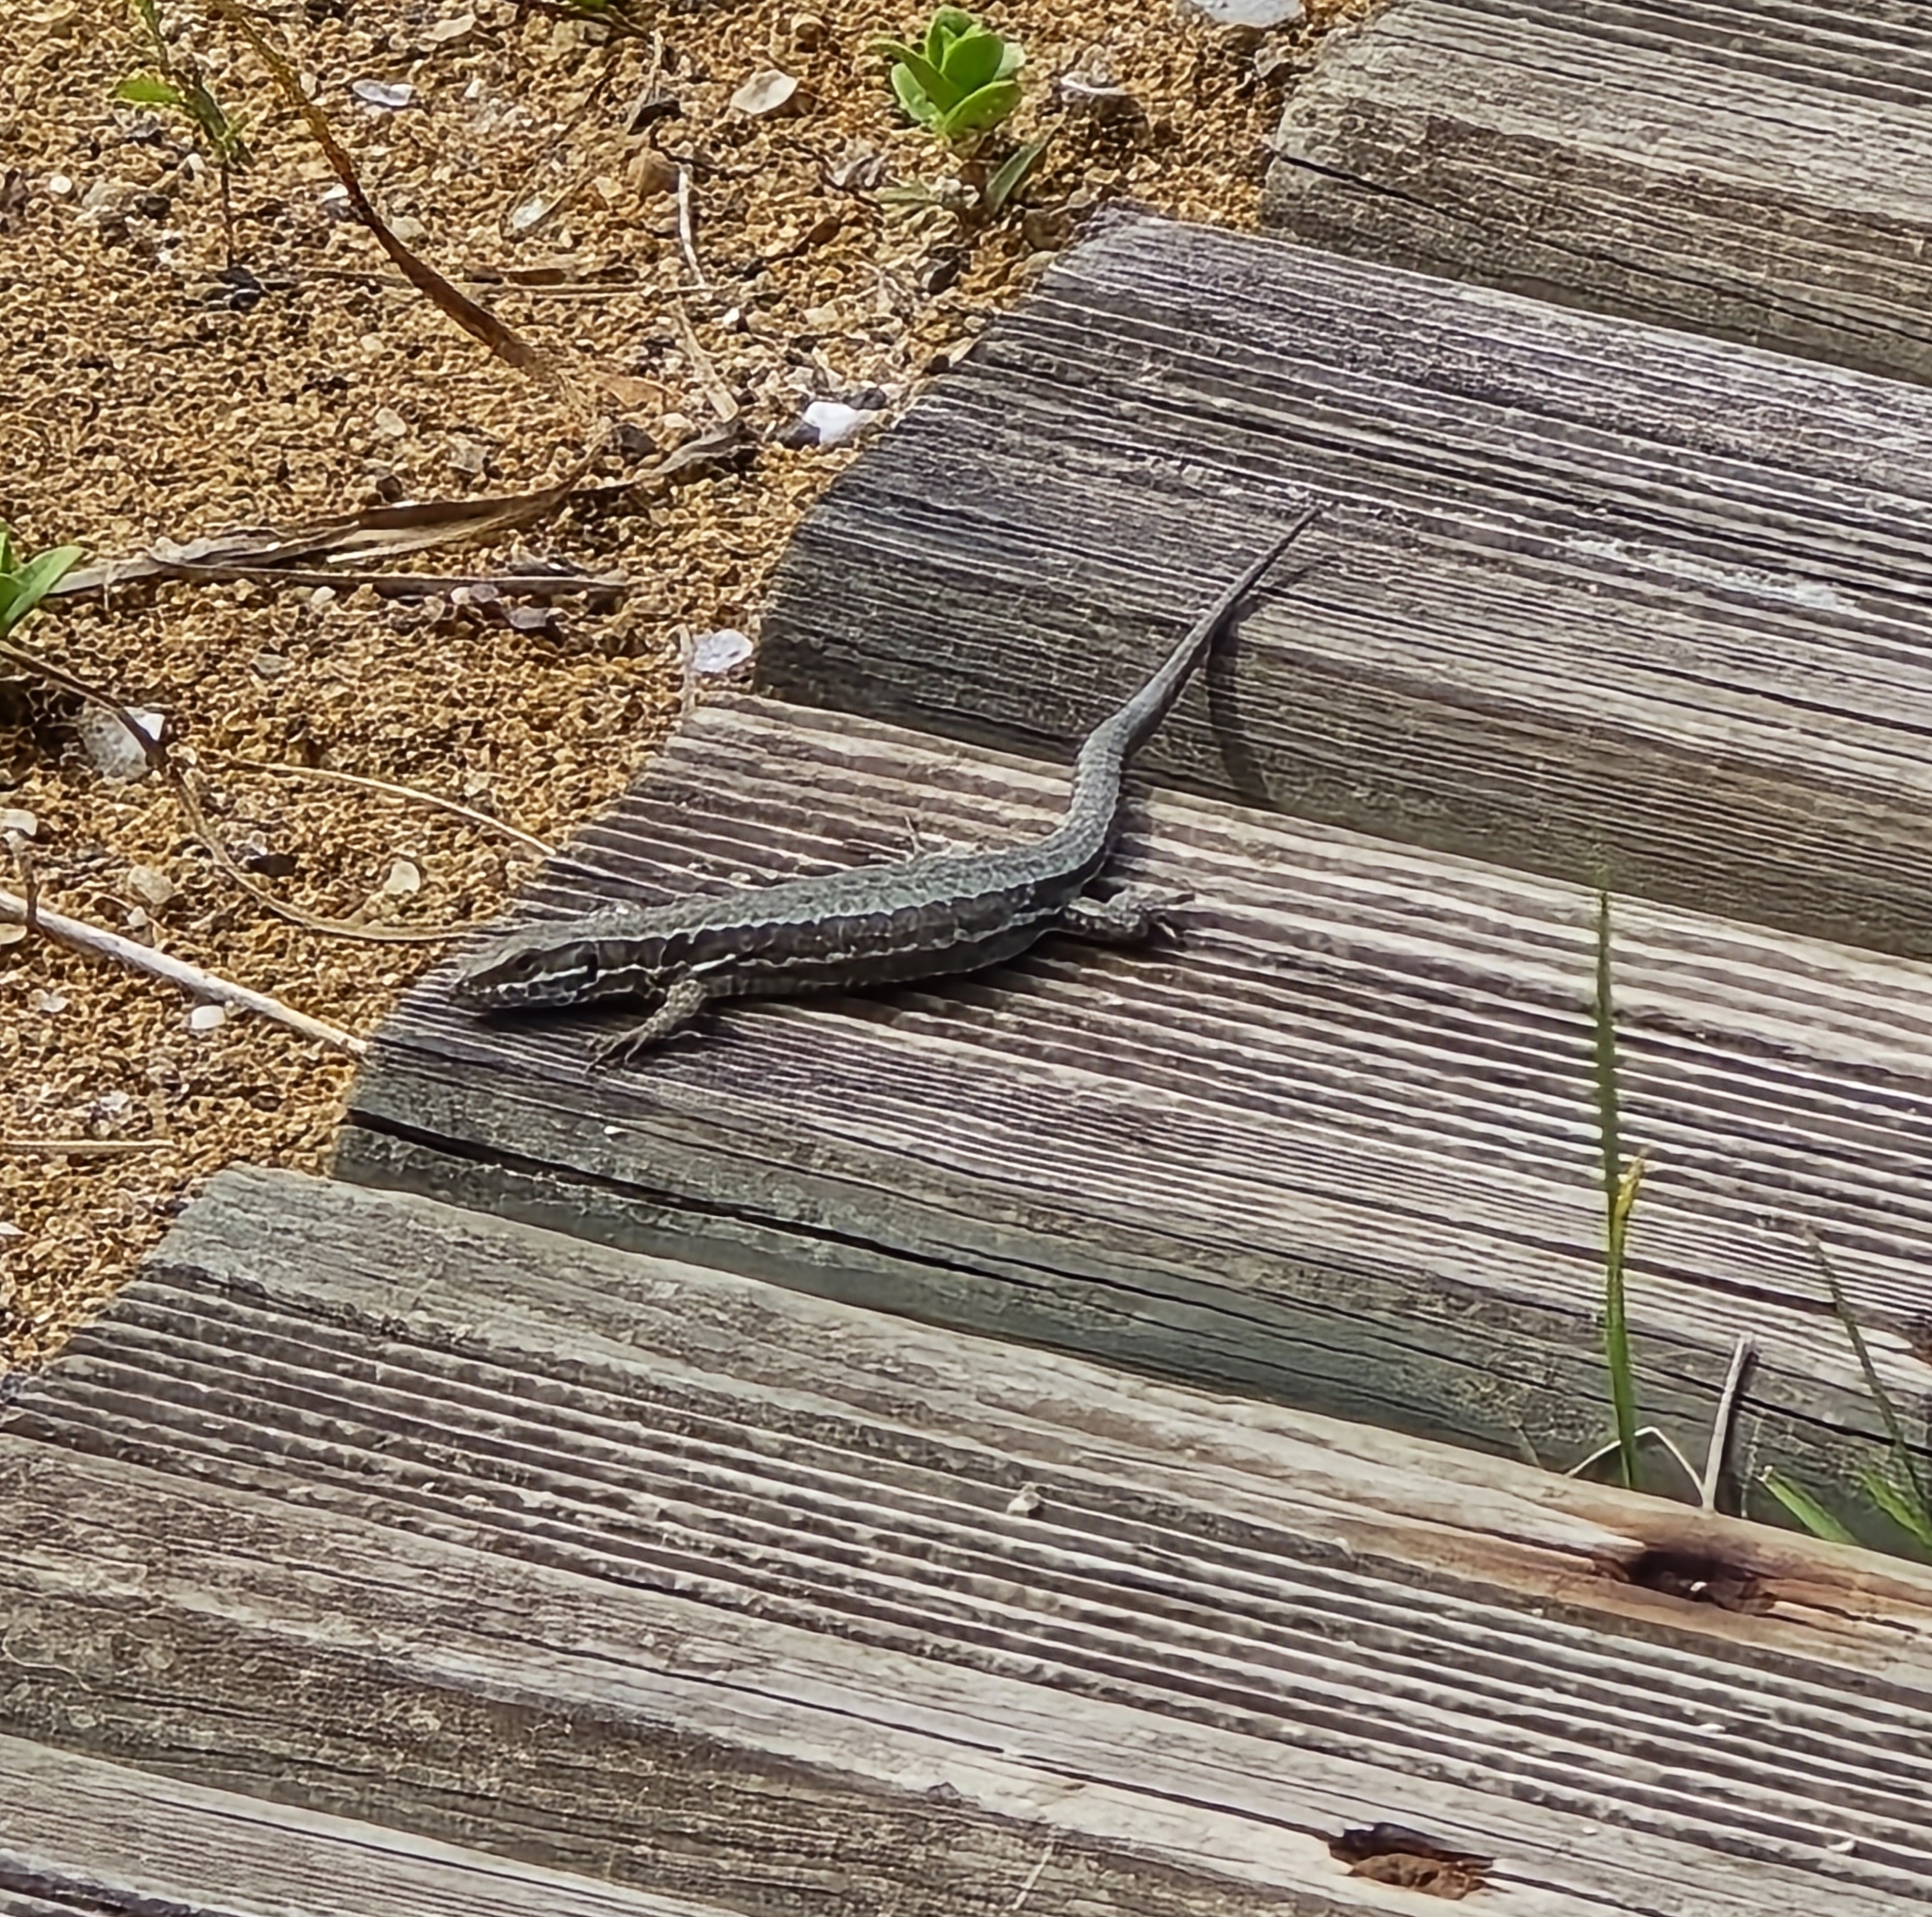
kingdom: Animalia
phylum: Chordata
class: Squamata
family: Lacertidae
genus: Podarcis
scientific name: Podarcis muralis
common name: Common wall lizard
